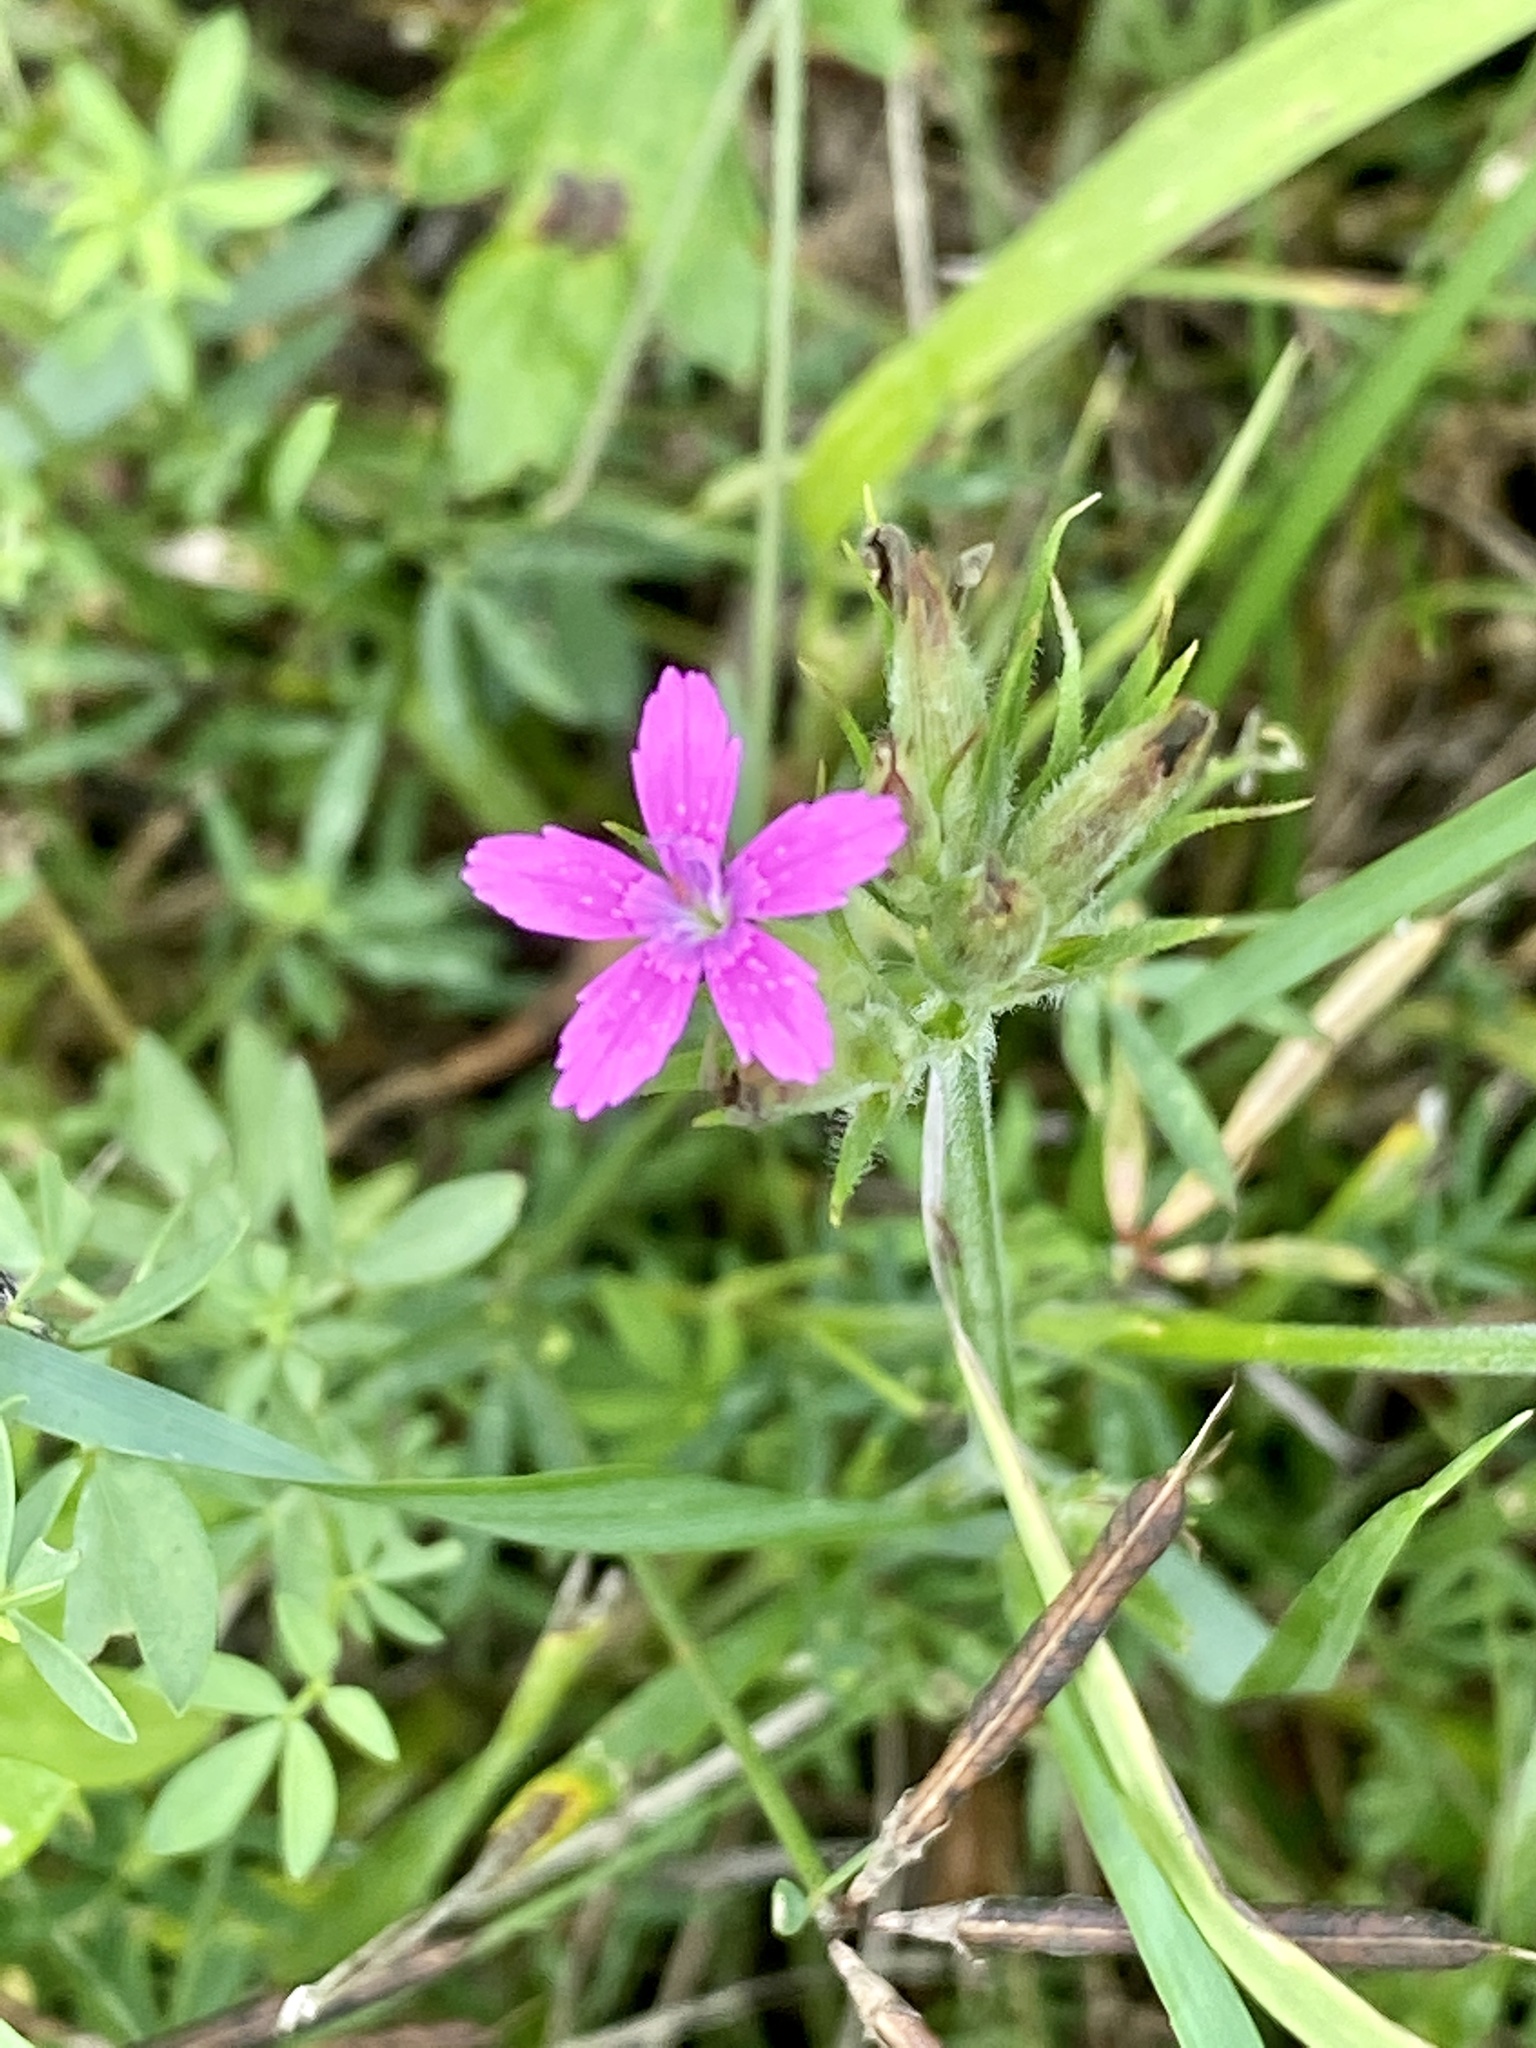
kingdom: Plantae
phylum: Tracheophyta
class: Magnoliopsida
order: Caryophyllales
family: Caryophyllaceae
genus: Dianthus
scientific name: Dianthus armeria
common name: Deptford pink
